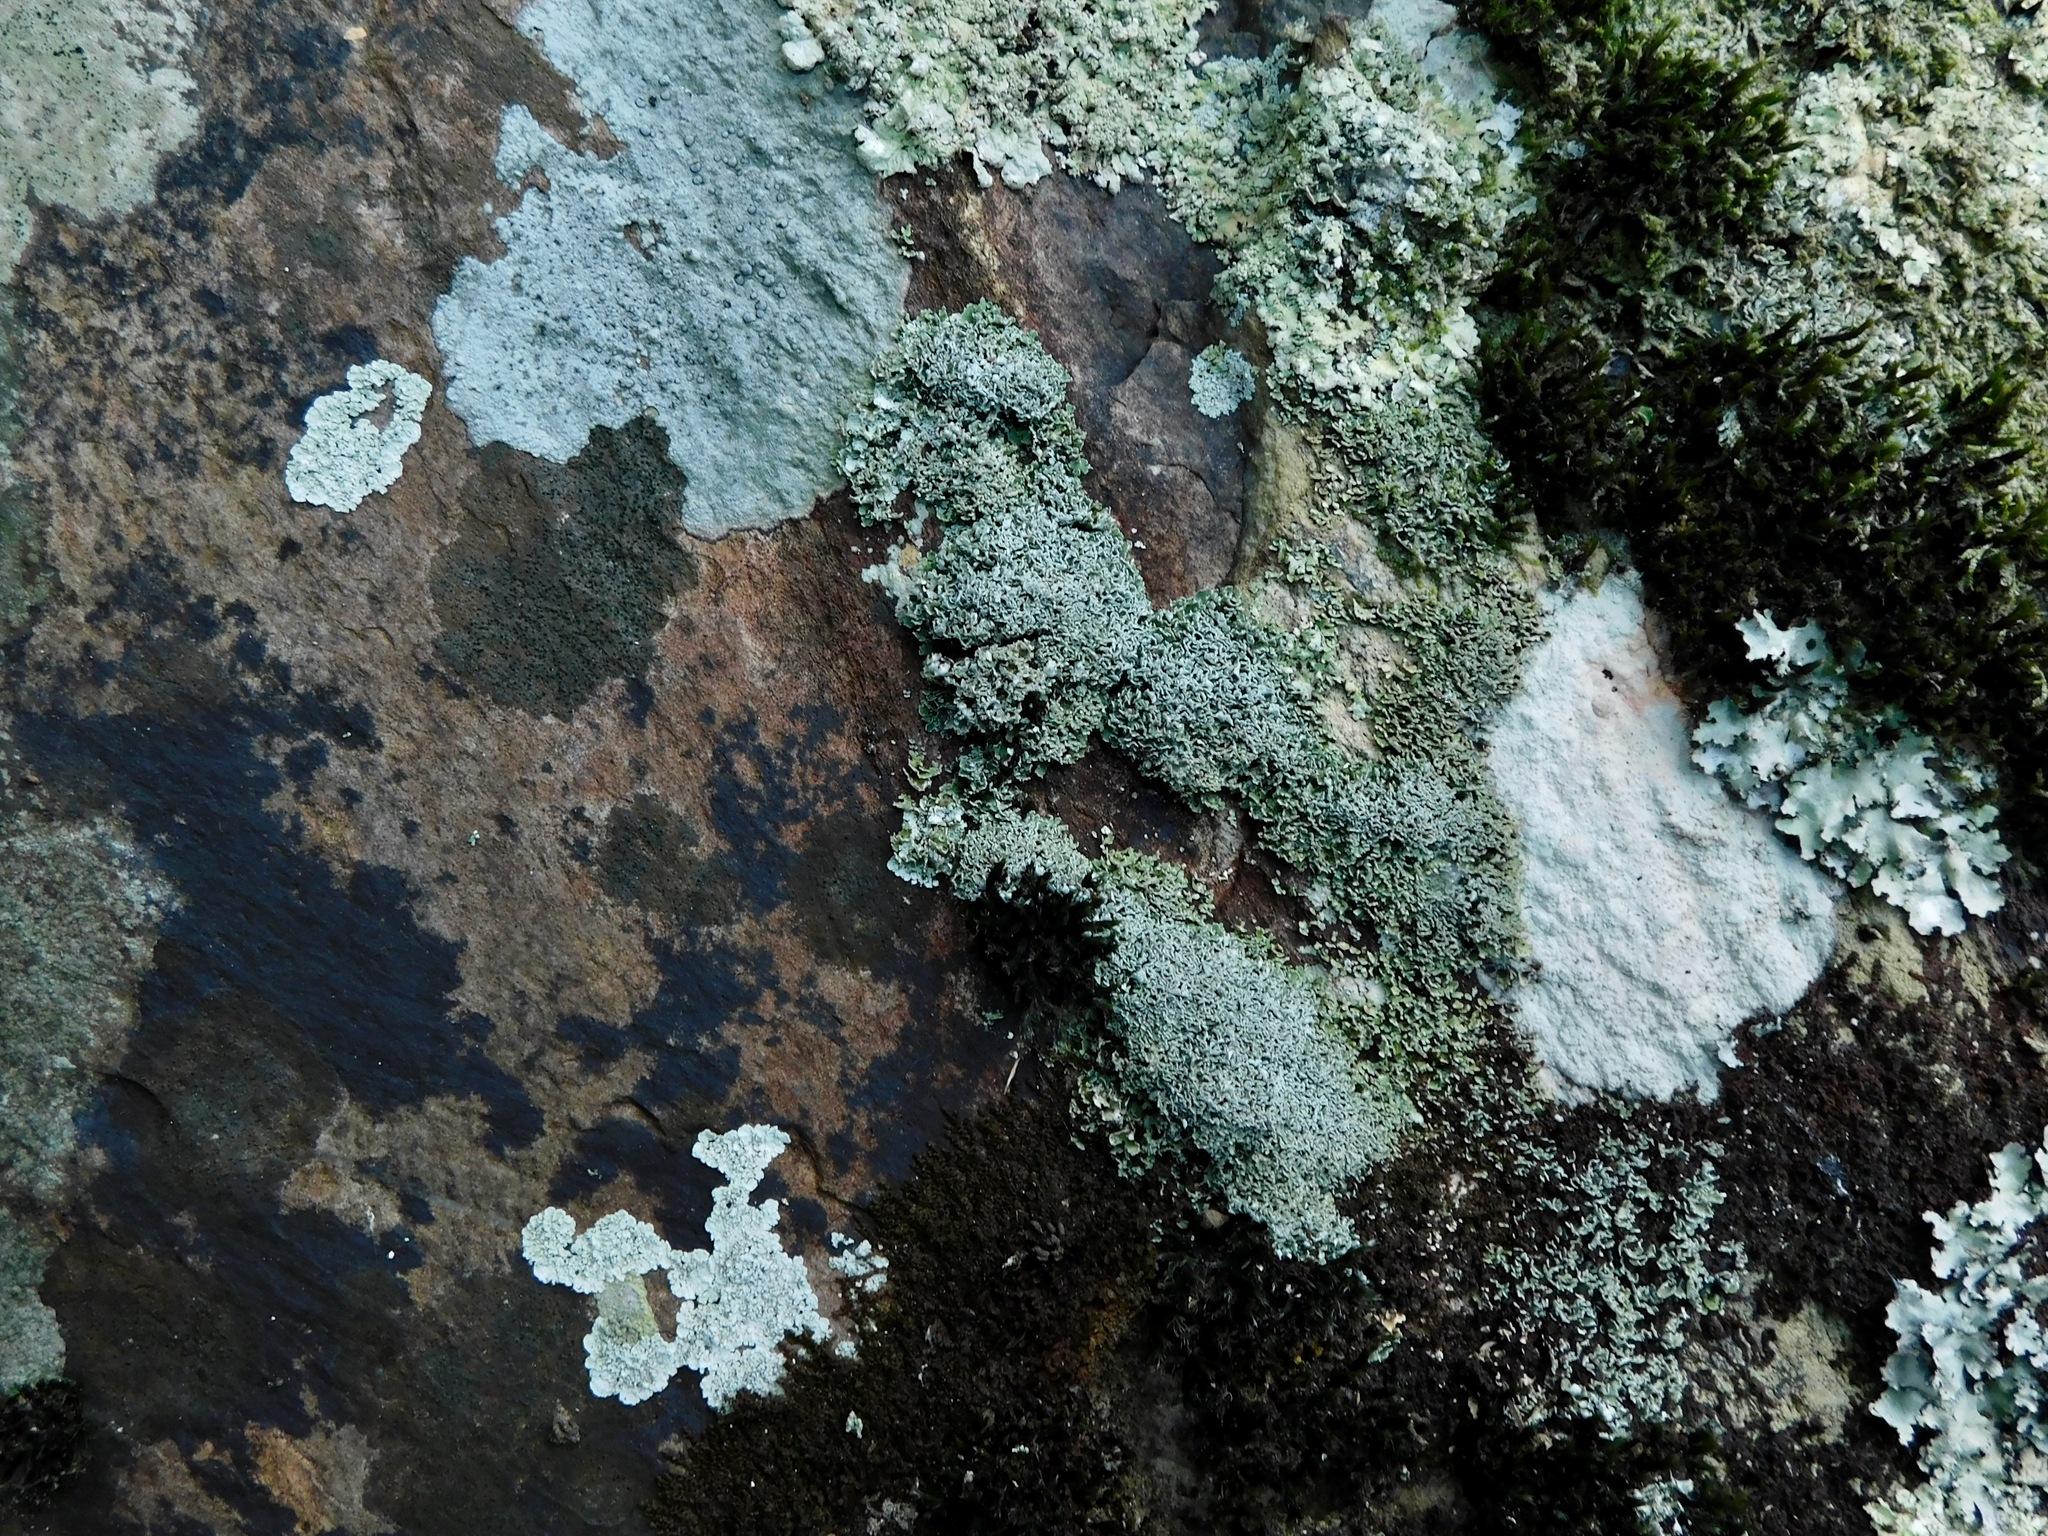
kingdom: Fungi
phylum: Ascomycota
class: Lecanoromycetes
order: Lecanorales
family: Cladoniaceae
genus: Cladonia
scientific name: Cladonia robbinsii
